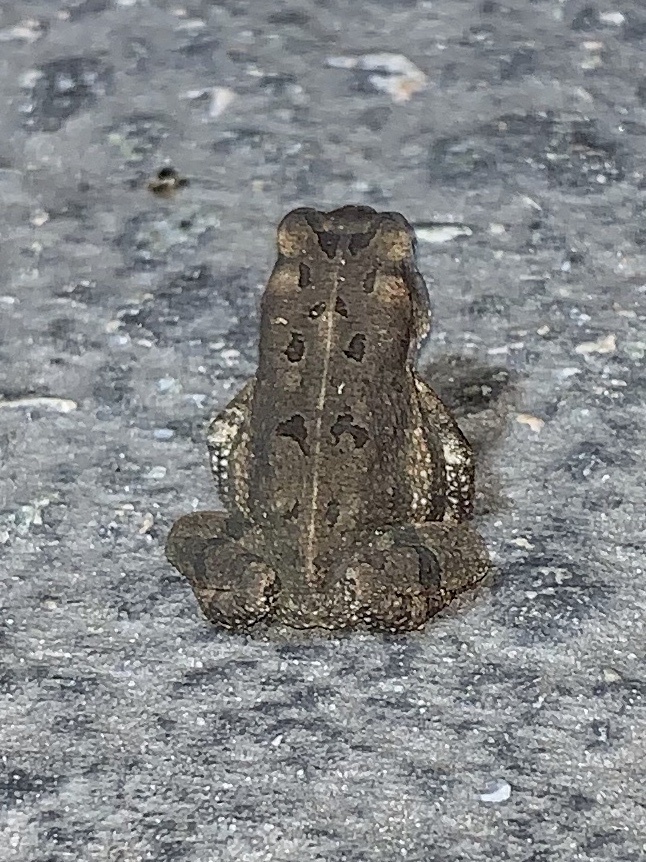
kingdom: Animalia
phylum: Chordata
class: Amphibia
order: Anura
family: Bufonidae
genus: Anaxyrus
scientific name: Anaxyrus fowleri
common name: Fowler's toad
